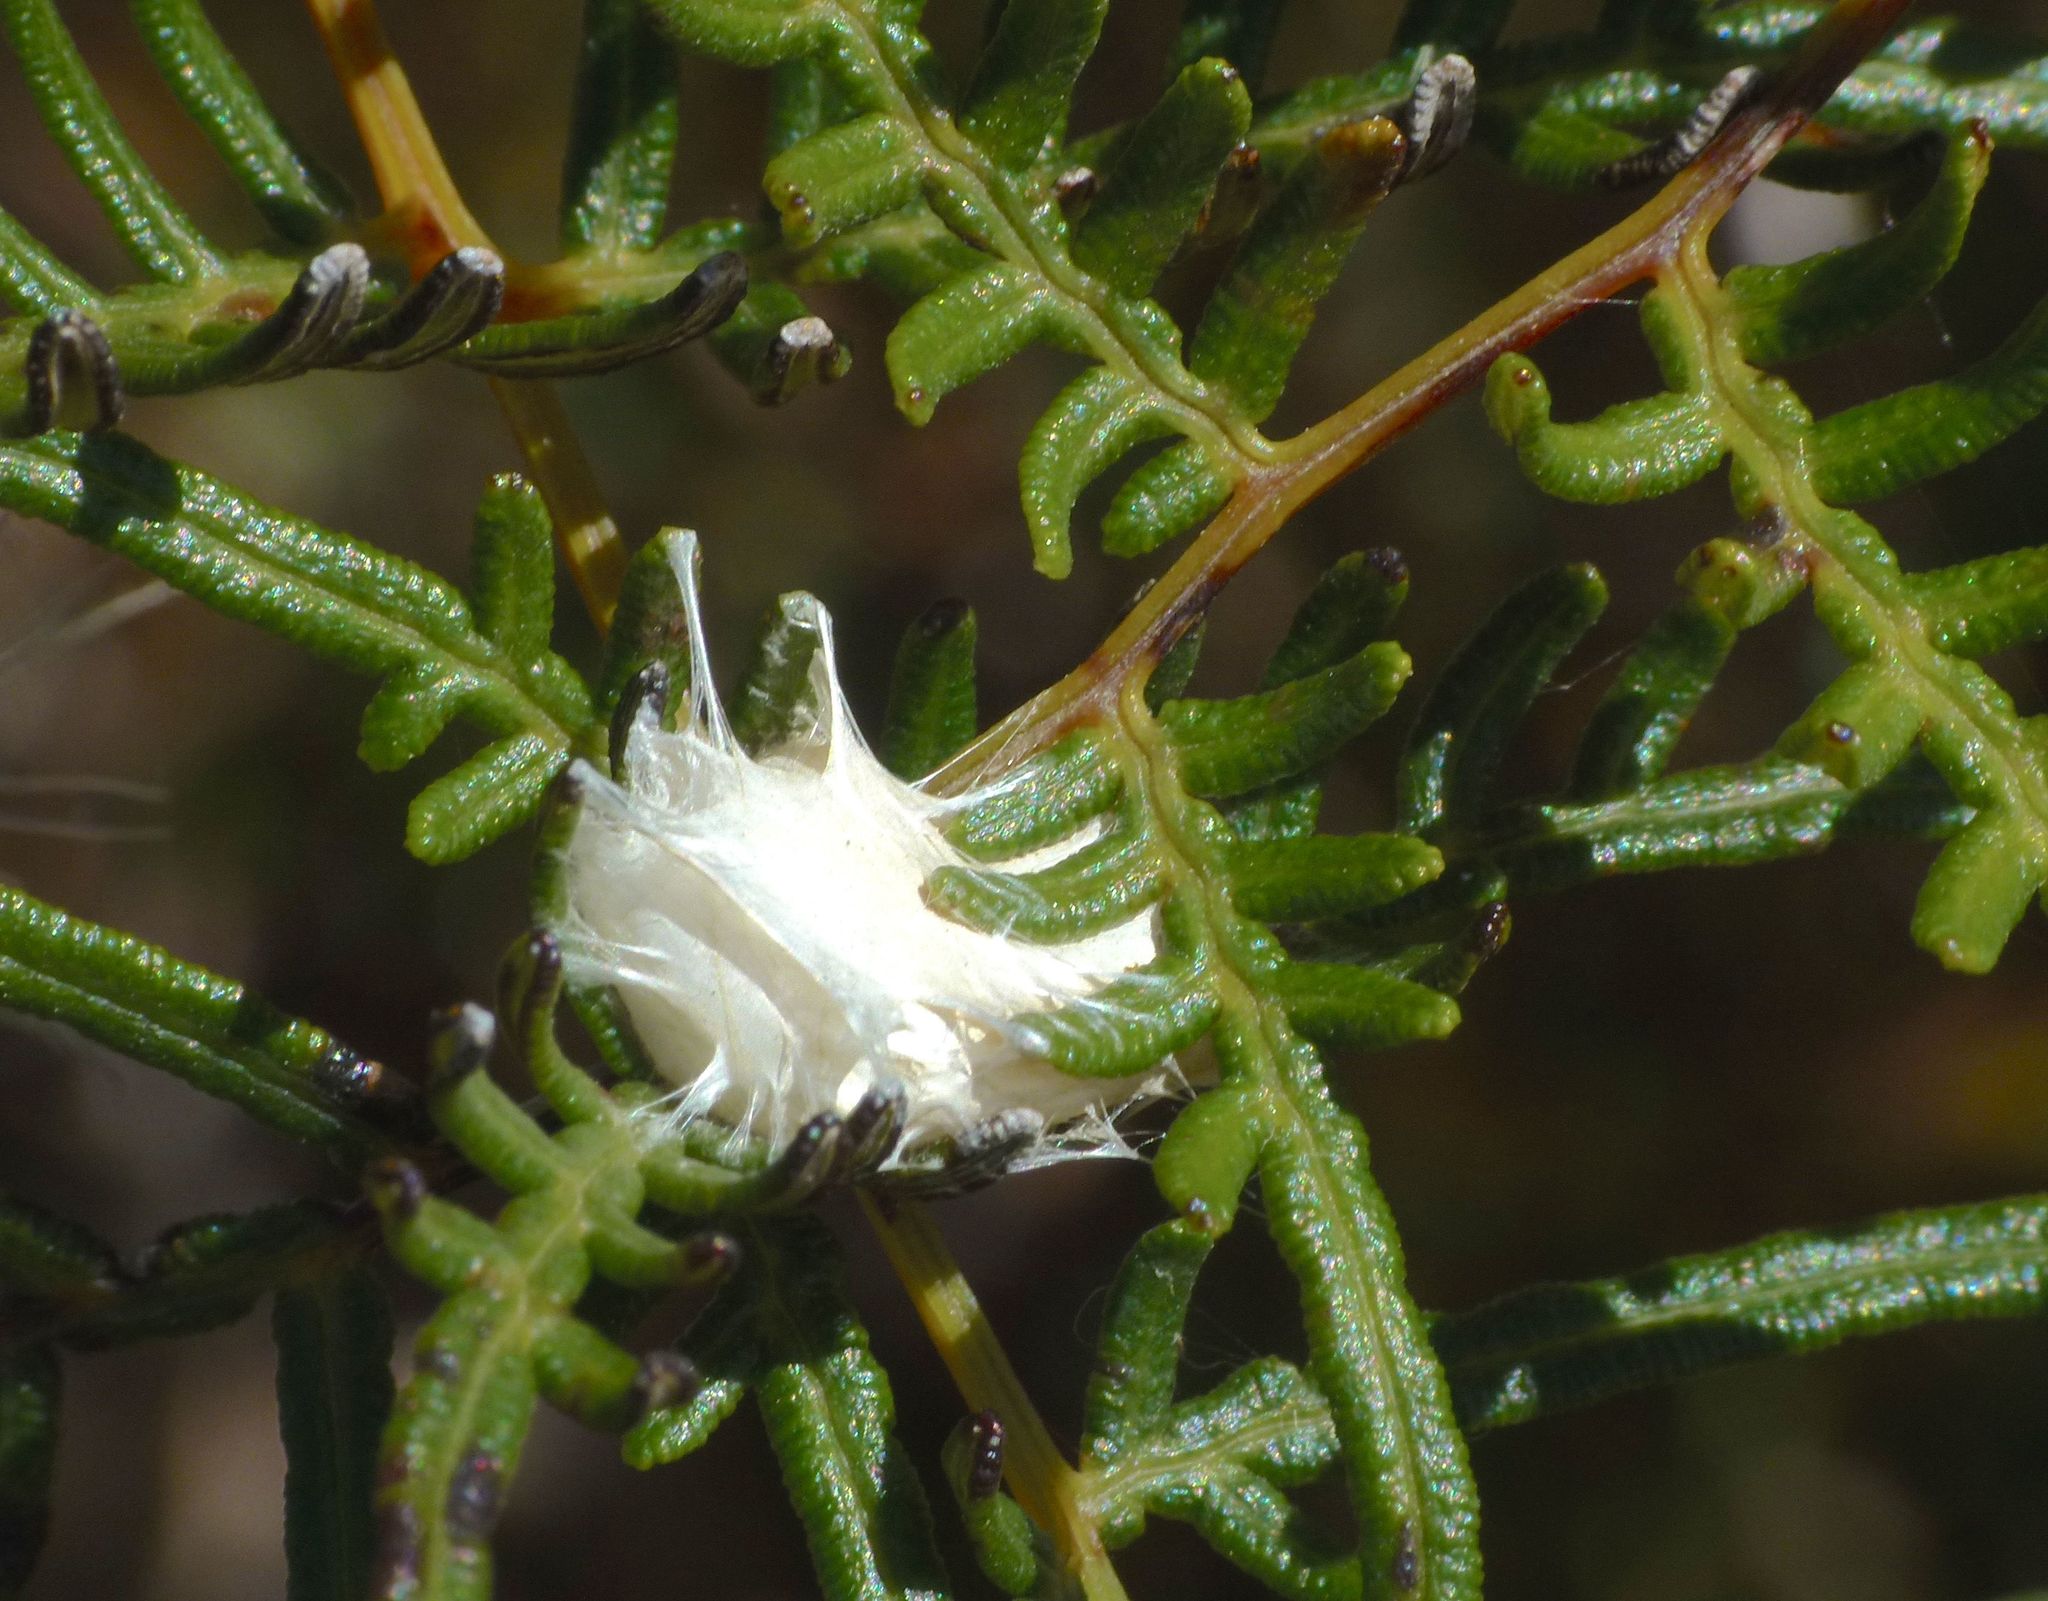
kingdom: Animalia
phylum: Arthropoda
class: Arachnida
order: Araneae
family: Araneidae
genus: Colaranea
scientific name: Colaranea viriditas
